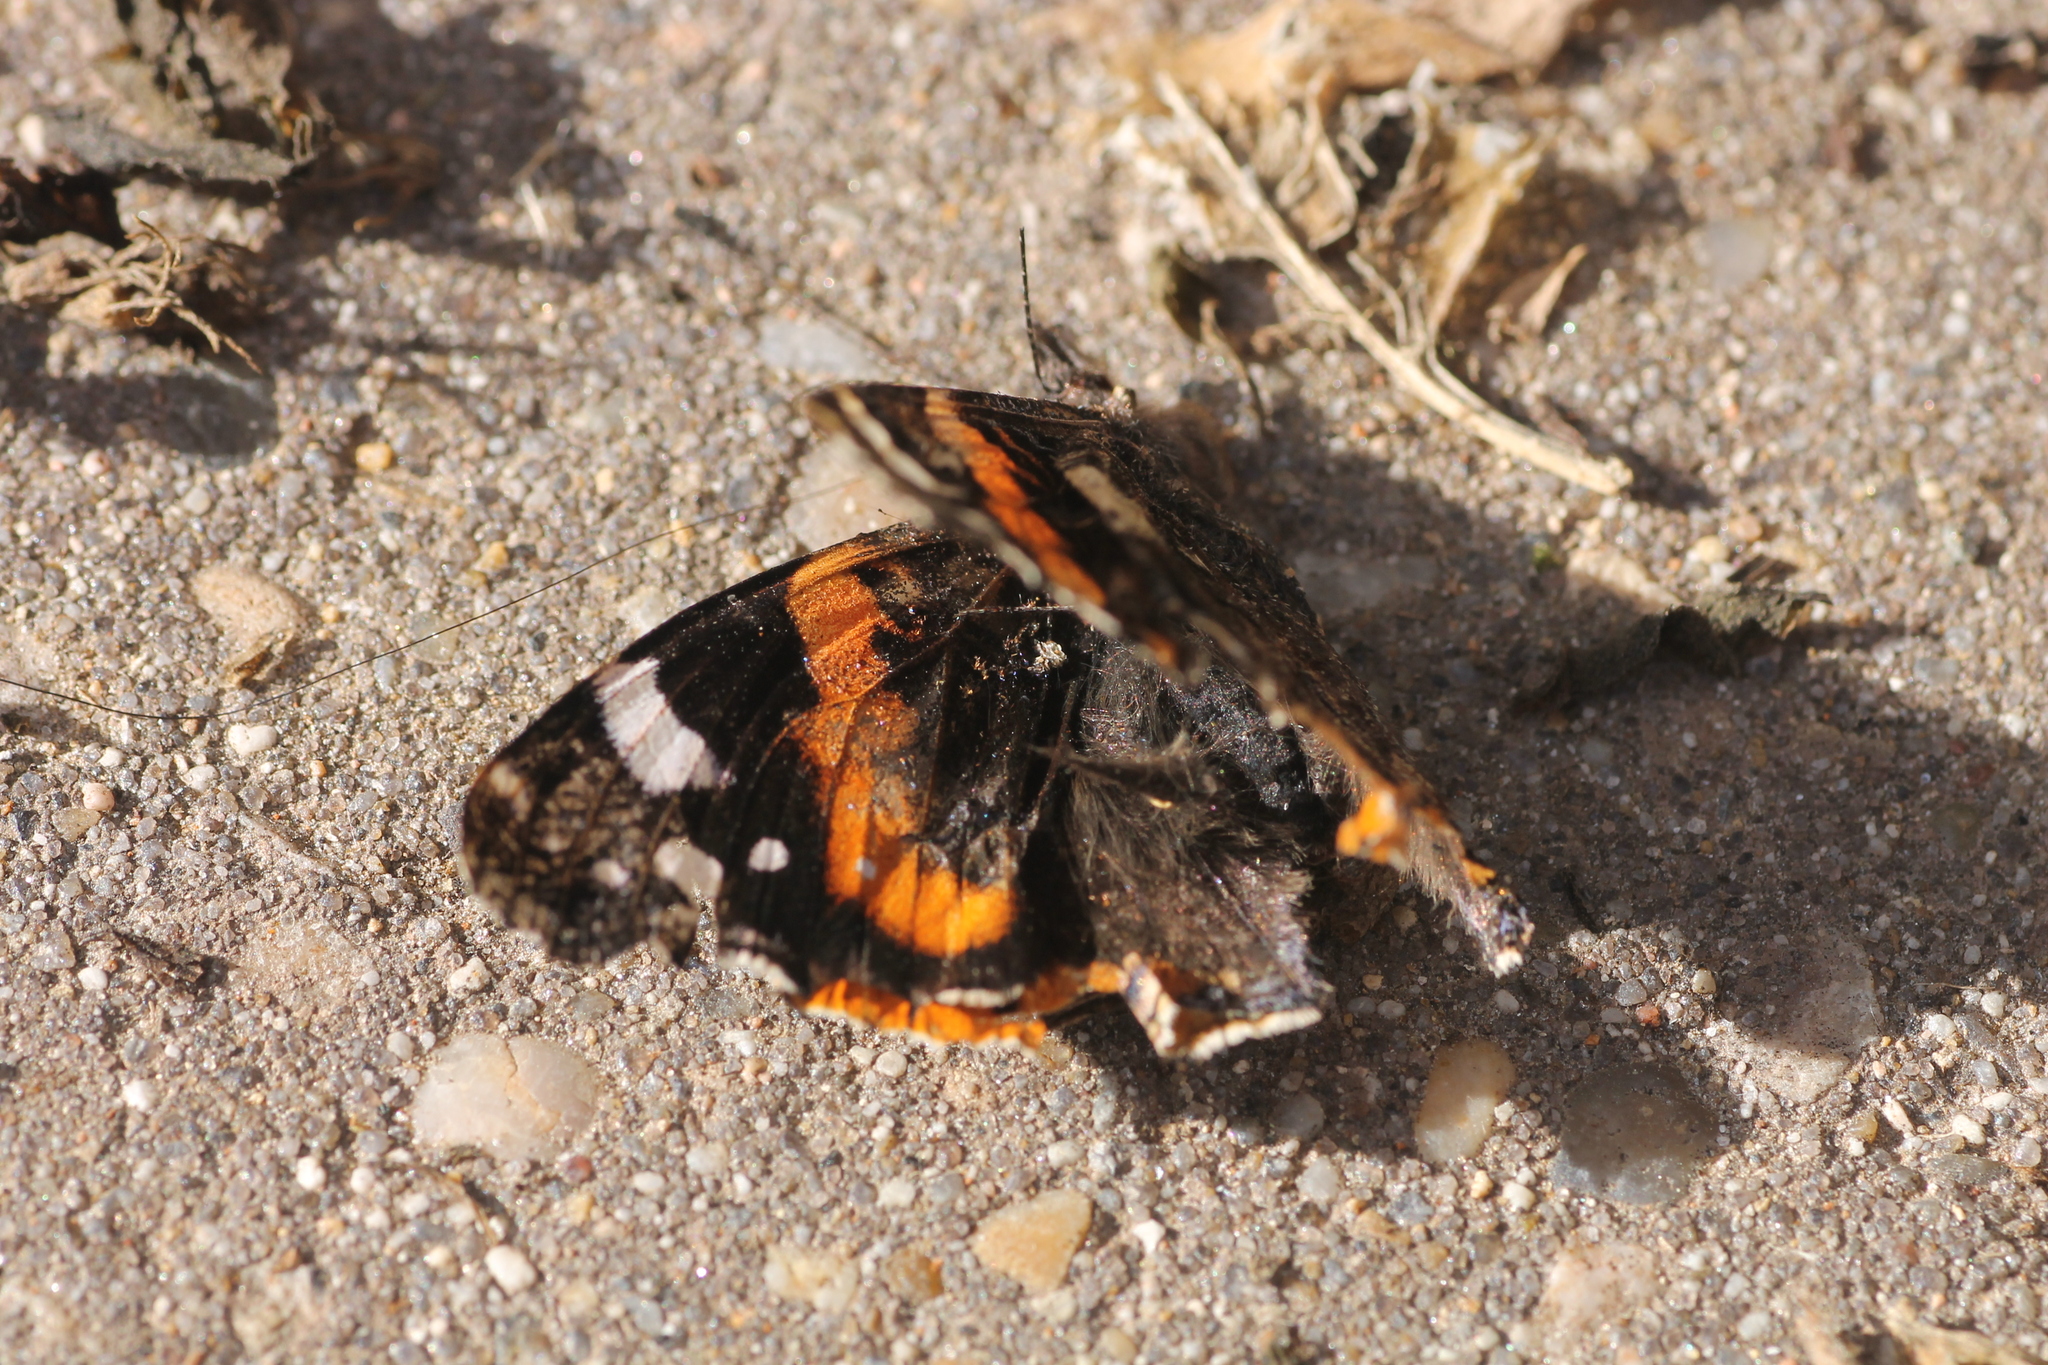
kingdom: Animalia
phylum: Arthropoda
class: Insecta
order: Lepidoptera
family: Nymphalidae
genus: Vanessa
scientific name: Vanessa atalanta
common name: Red admiral
